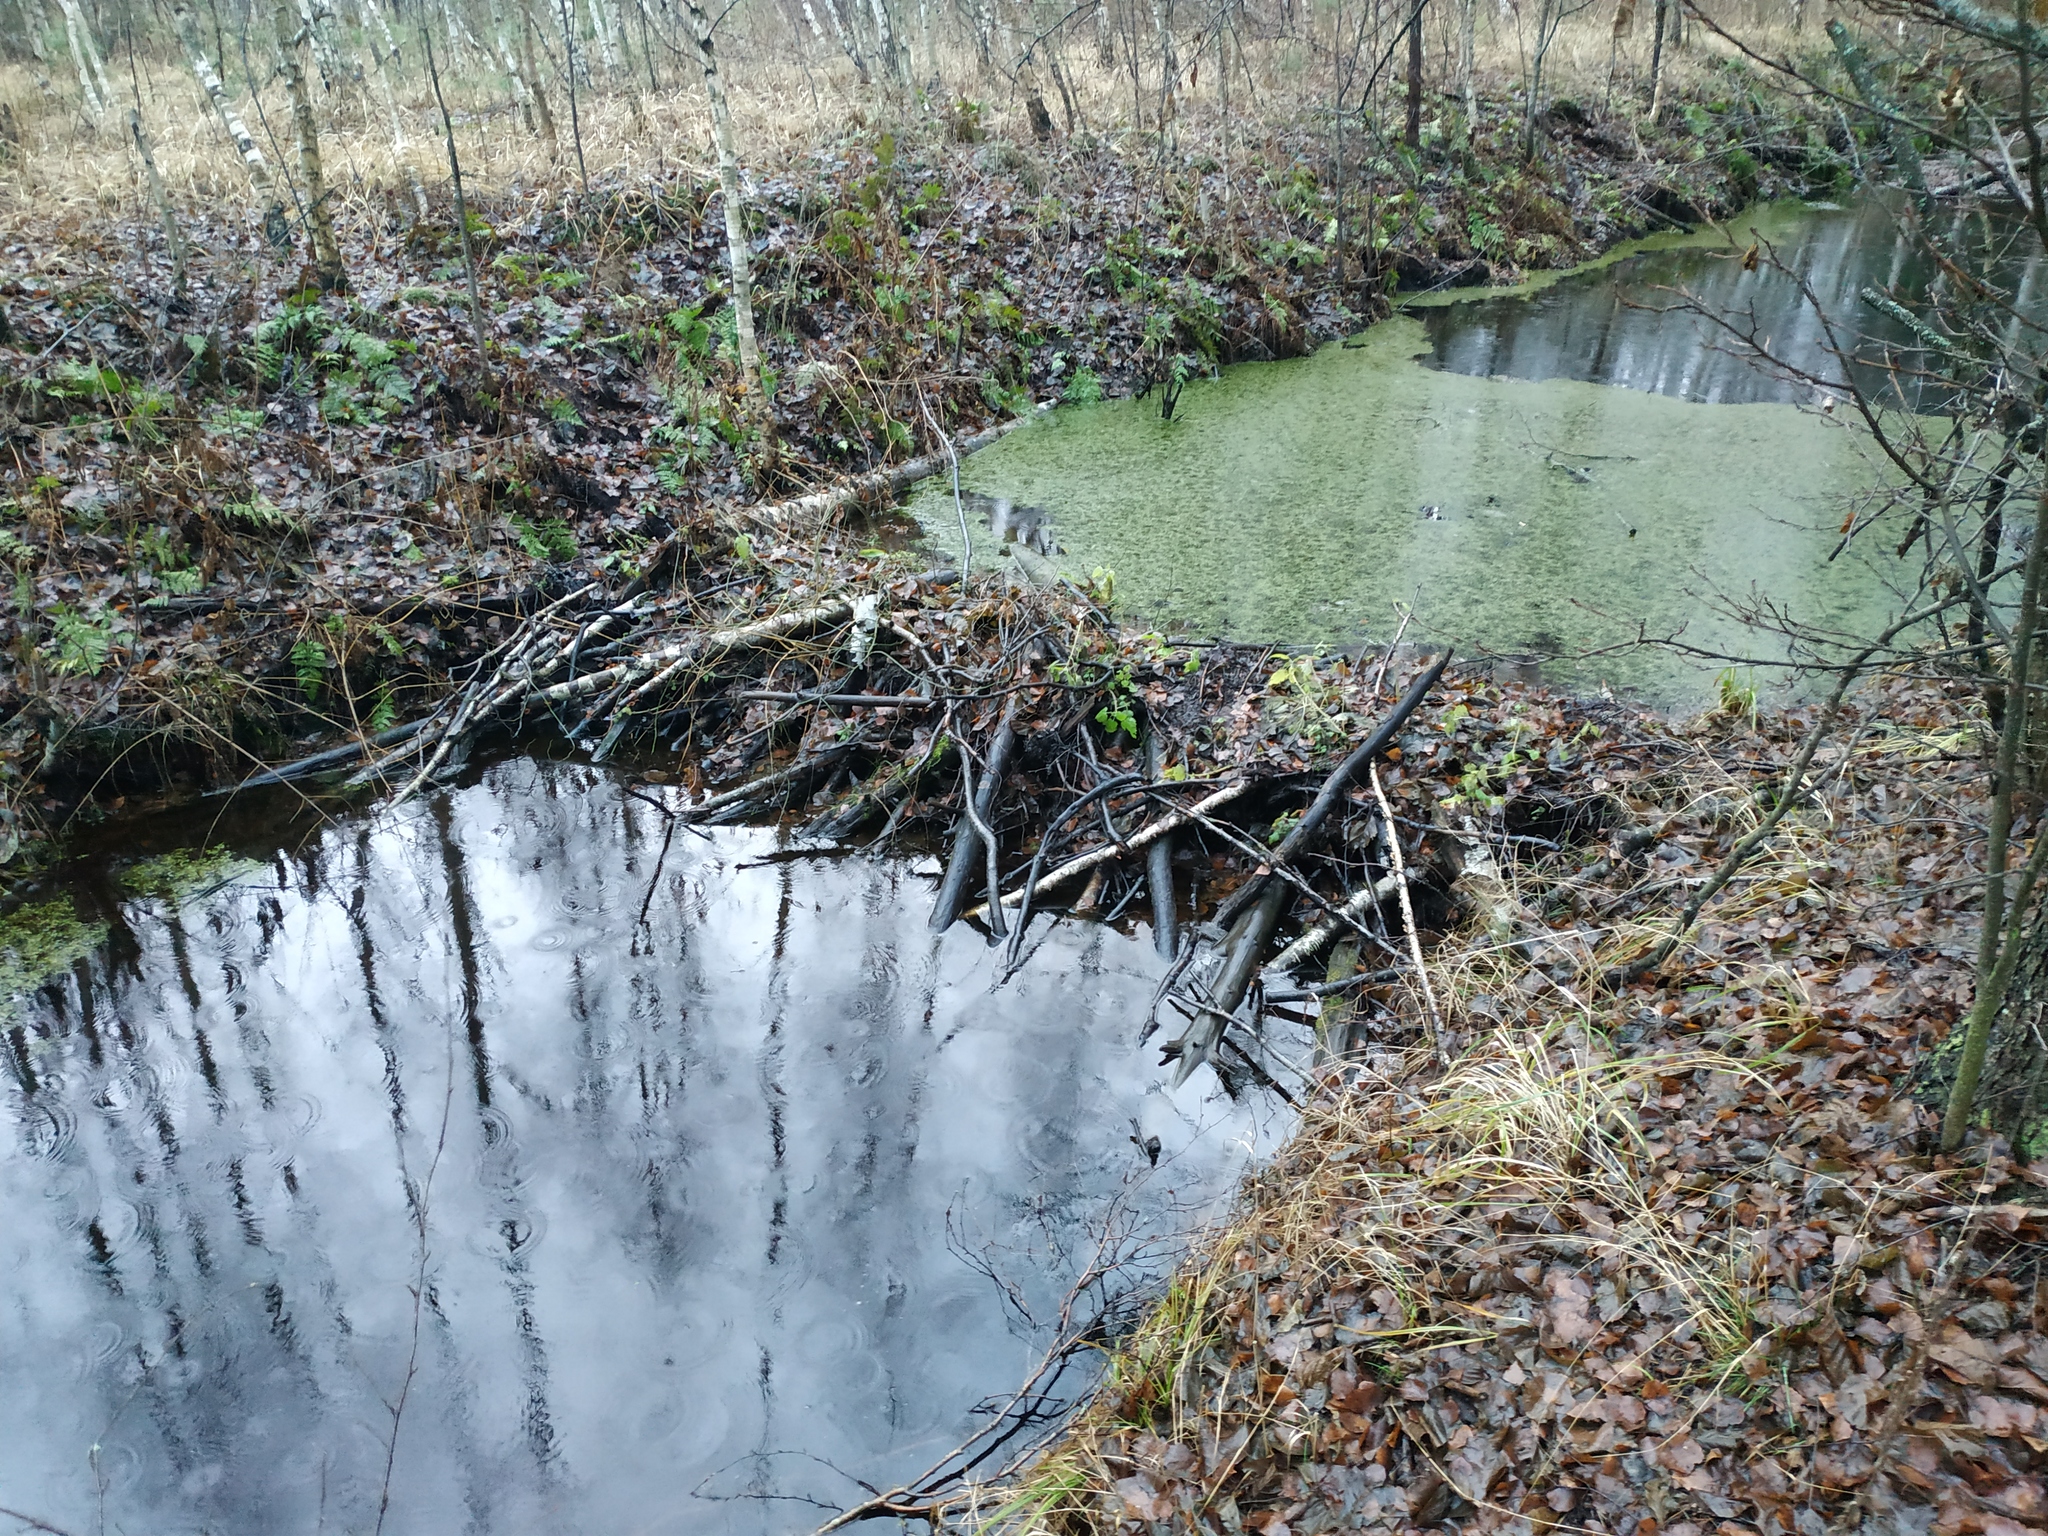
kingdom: Animalia
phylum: Chordata
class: Mammalia
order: Rodentia
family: Castoridae
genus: Castor
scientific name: Castor fiber
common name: Eurasian beaver
